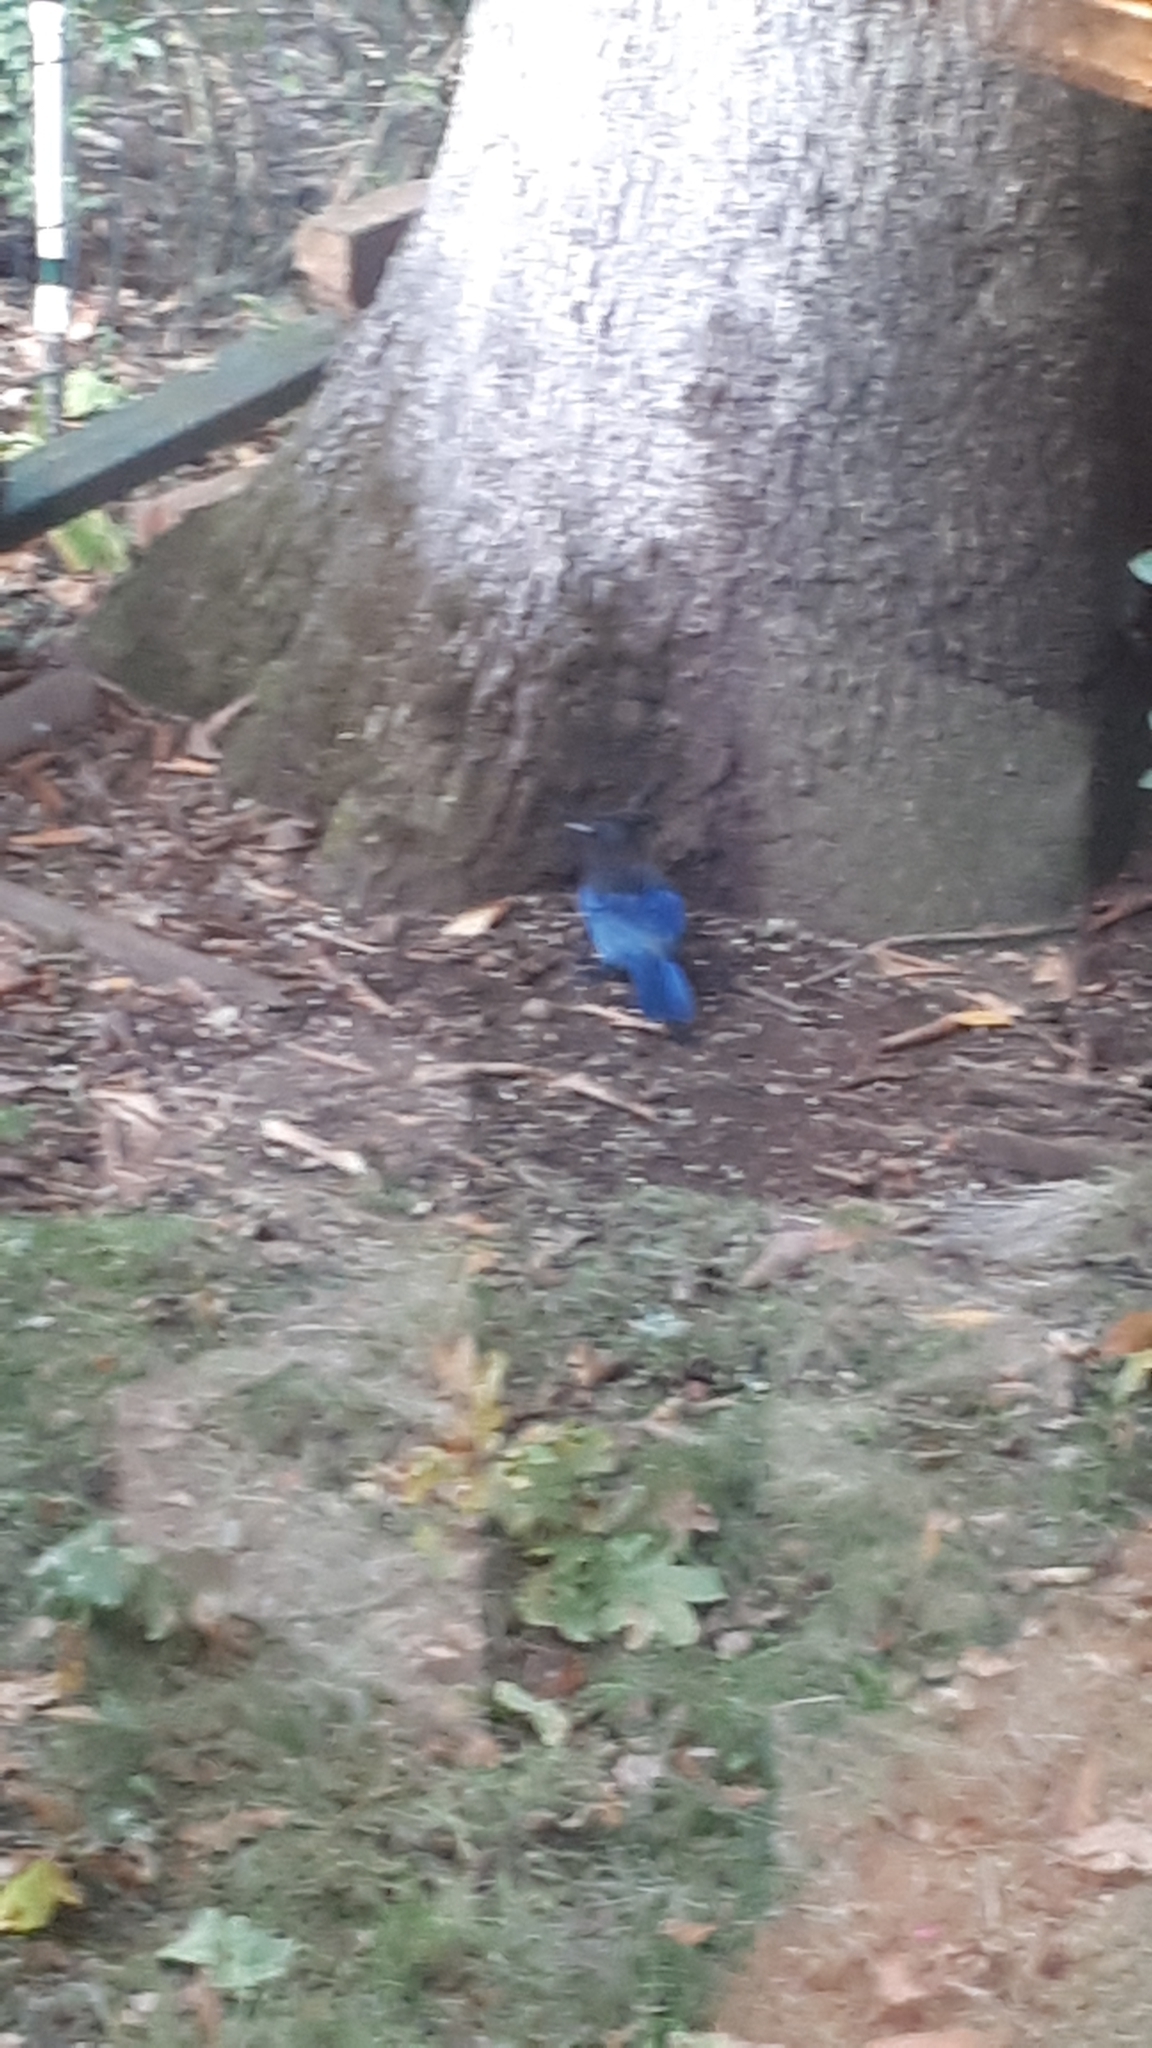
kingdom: Animalia
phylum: Chordata
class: Aves
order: Passeriformes
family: Corvidae
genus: Cyanocitta
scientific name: Cyanocitta stelleri
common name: Steller's jay
